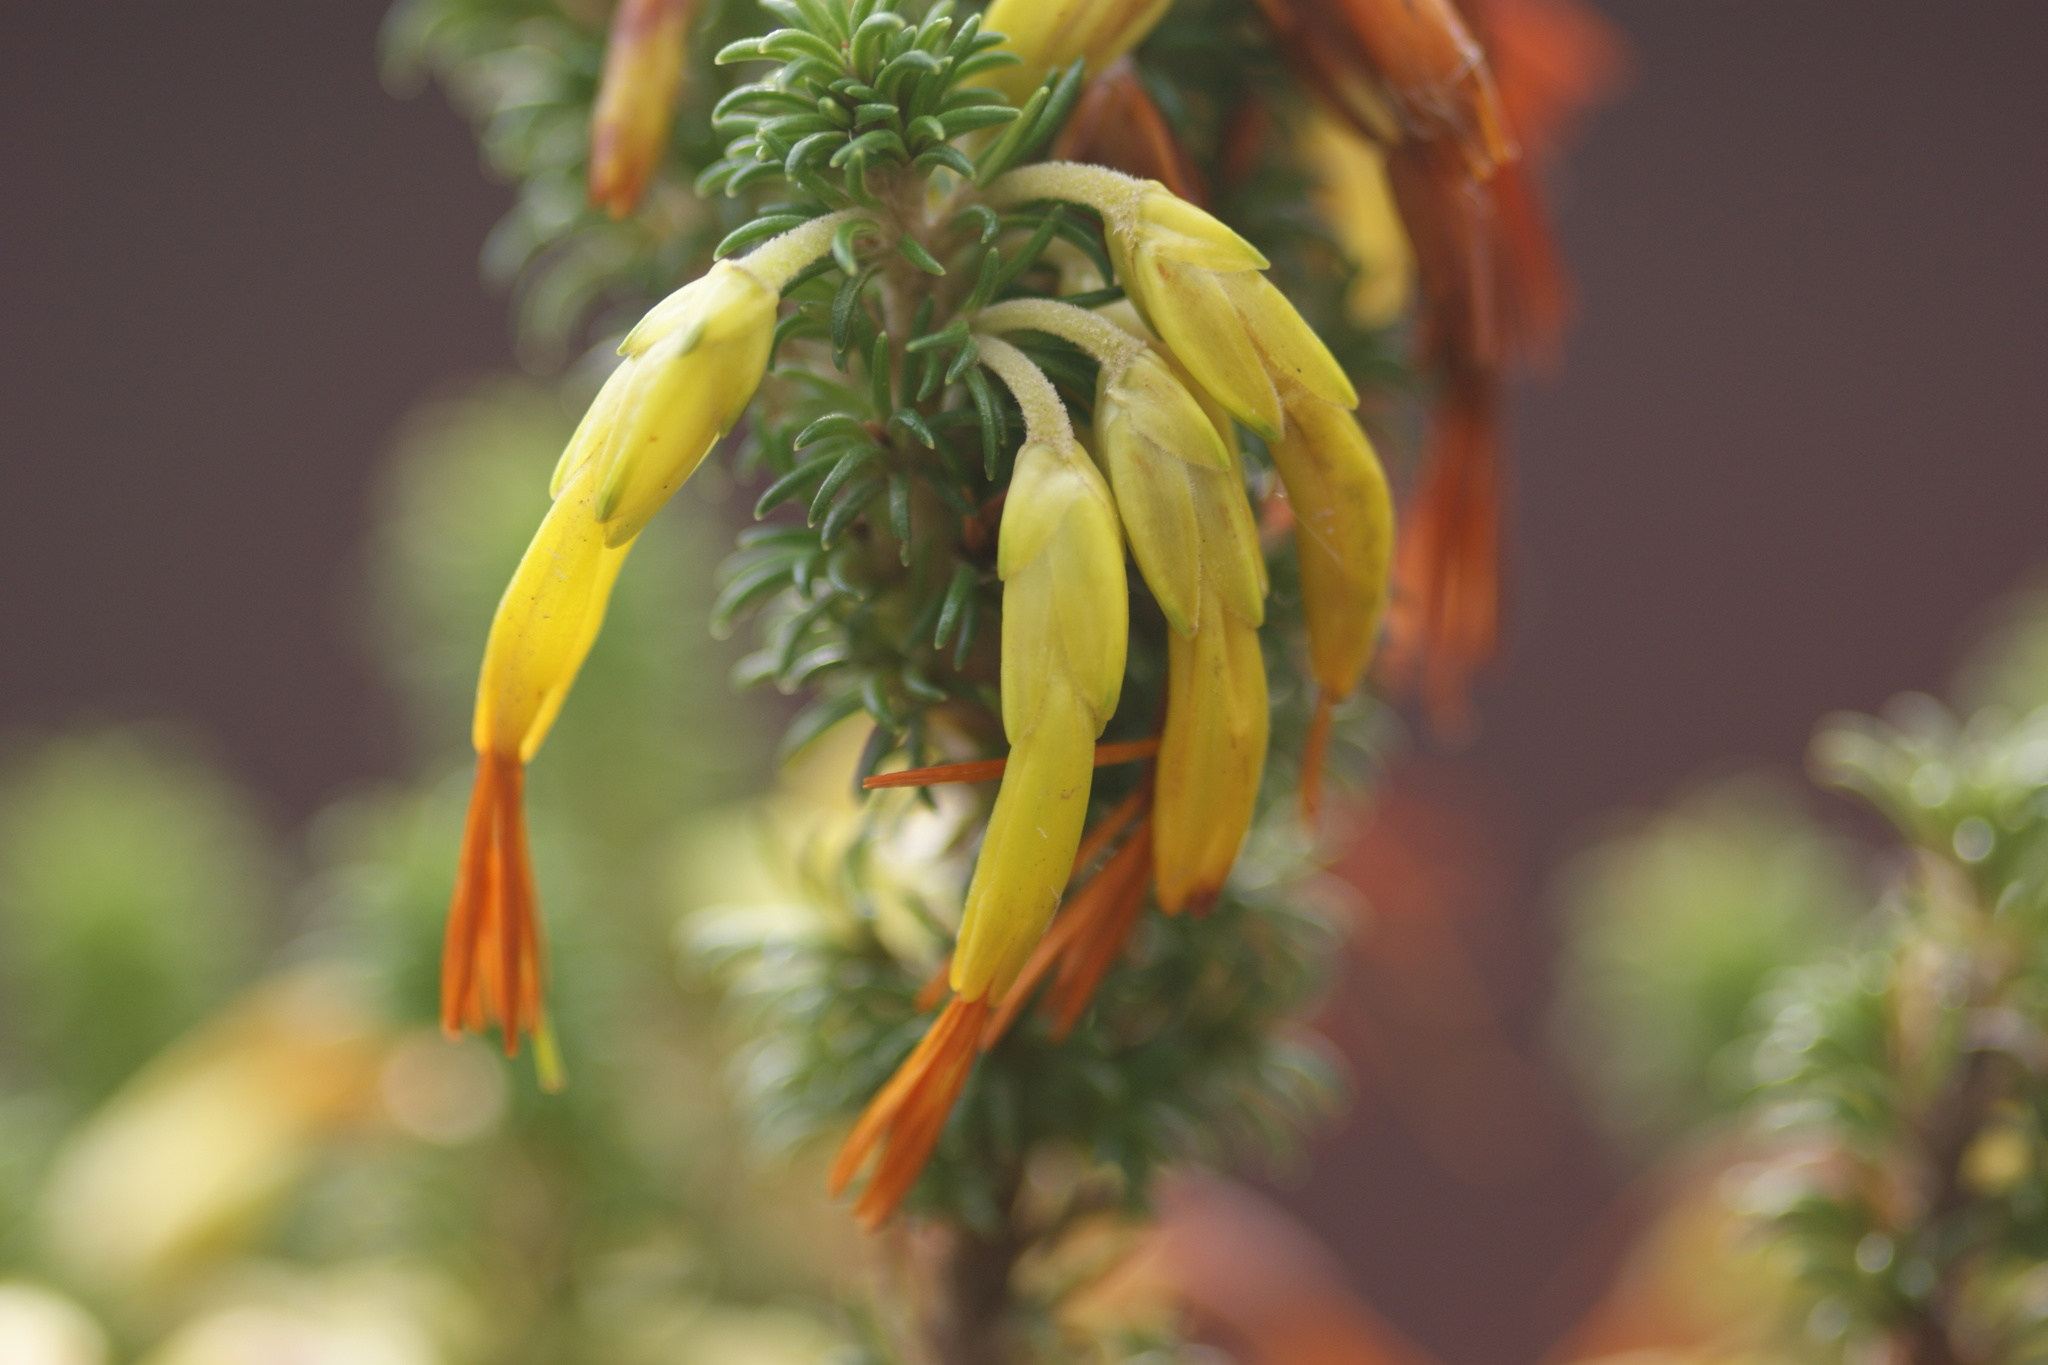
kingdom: Plantae
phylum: Tracheophyta
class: Magnoliopsida
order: Ericales
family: Ericaceae
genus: Erica
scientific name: Erica coccinea
